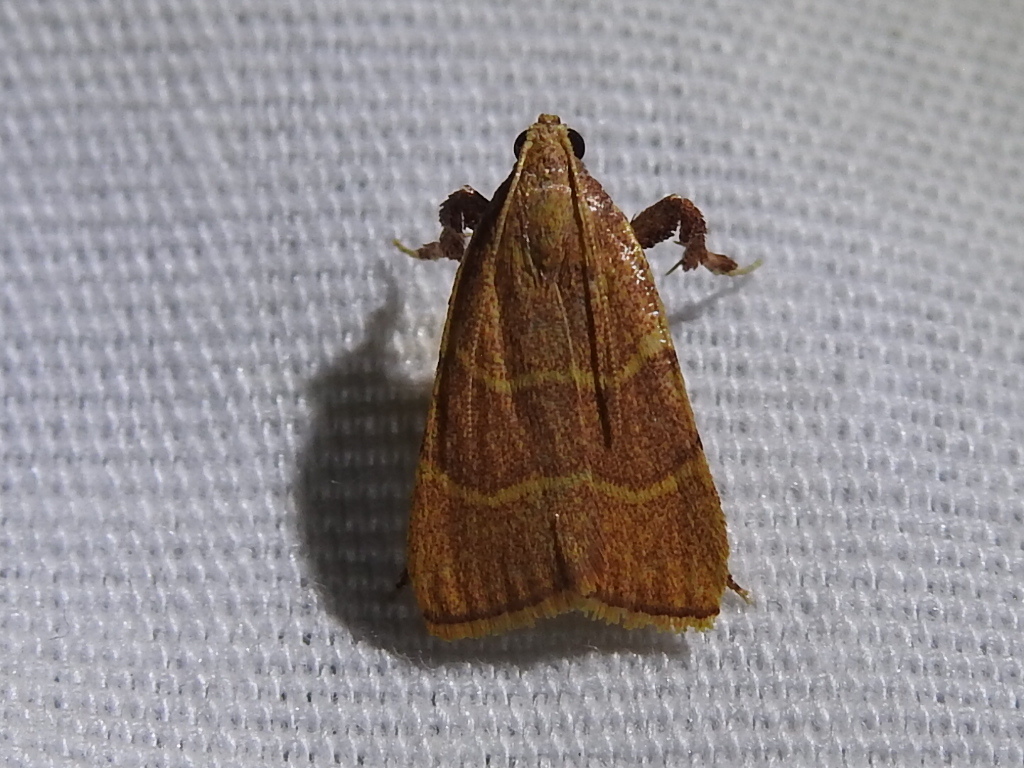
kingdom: Animalia
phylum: Arthropoda
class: Insecta
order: Lepidoptera
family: Pyralidae
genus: Parachma
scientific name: Parachma ochracealis
